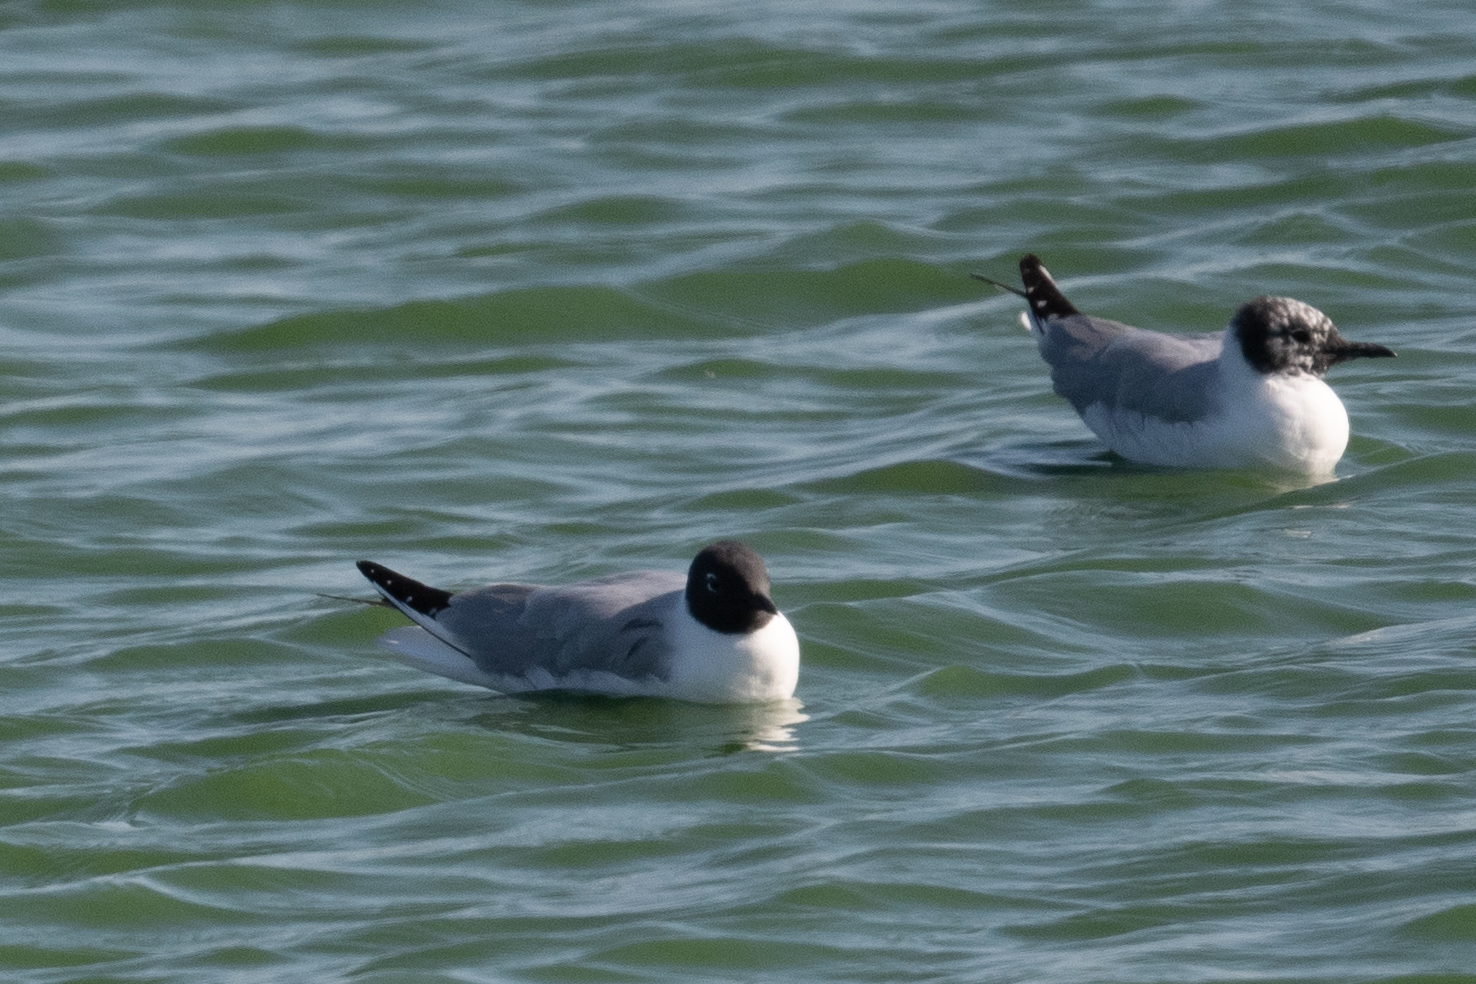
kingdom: Animalia
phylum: Chordata
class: Aves
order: Charadriiformes
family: Laridae
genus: Chroicocephalus
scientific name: Chroicocephalus philadelphia
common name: Bonaparte's gull
